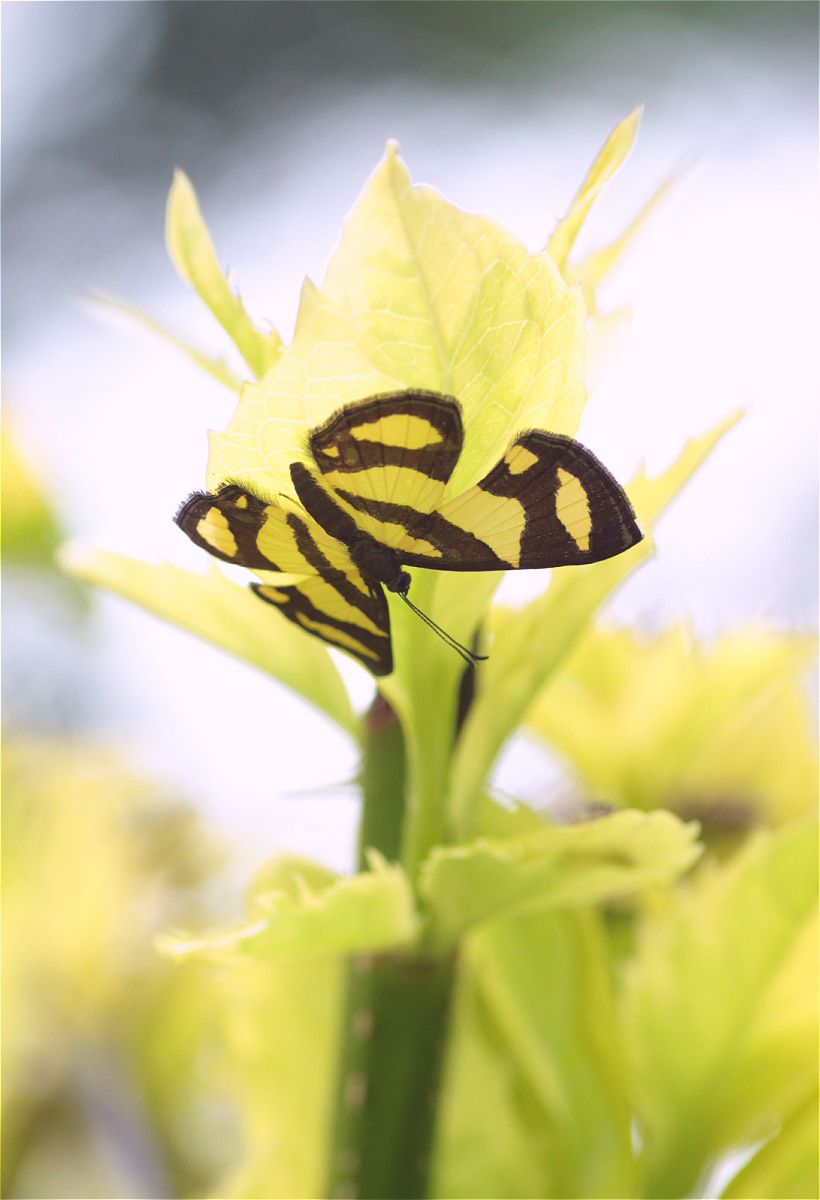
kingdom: Animalia
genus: Baeotis
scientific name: Baeotis zonata
